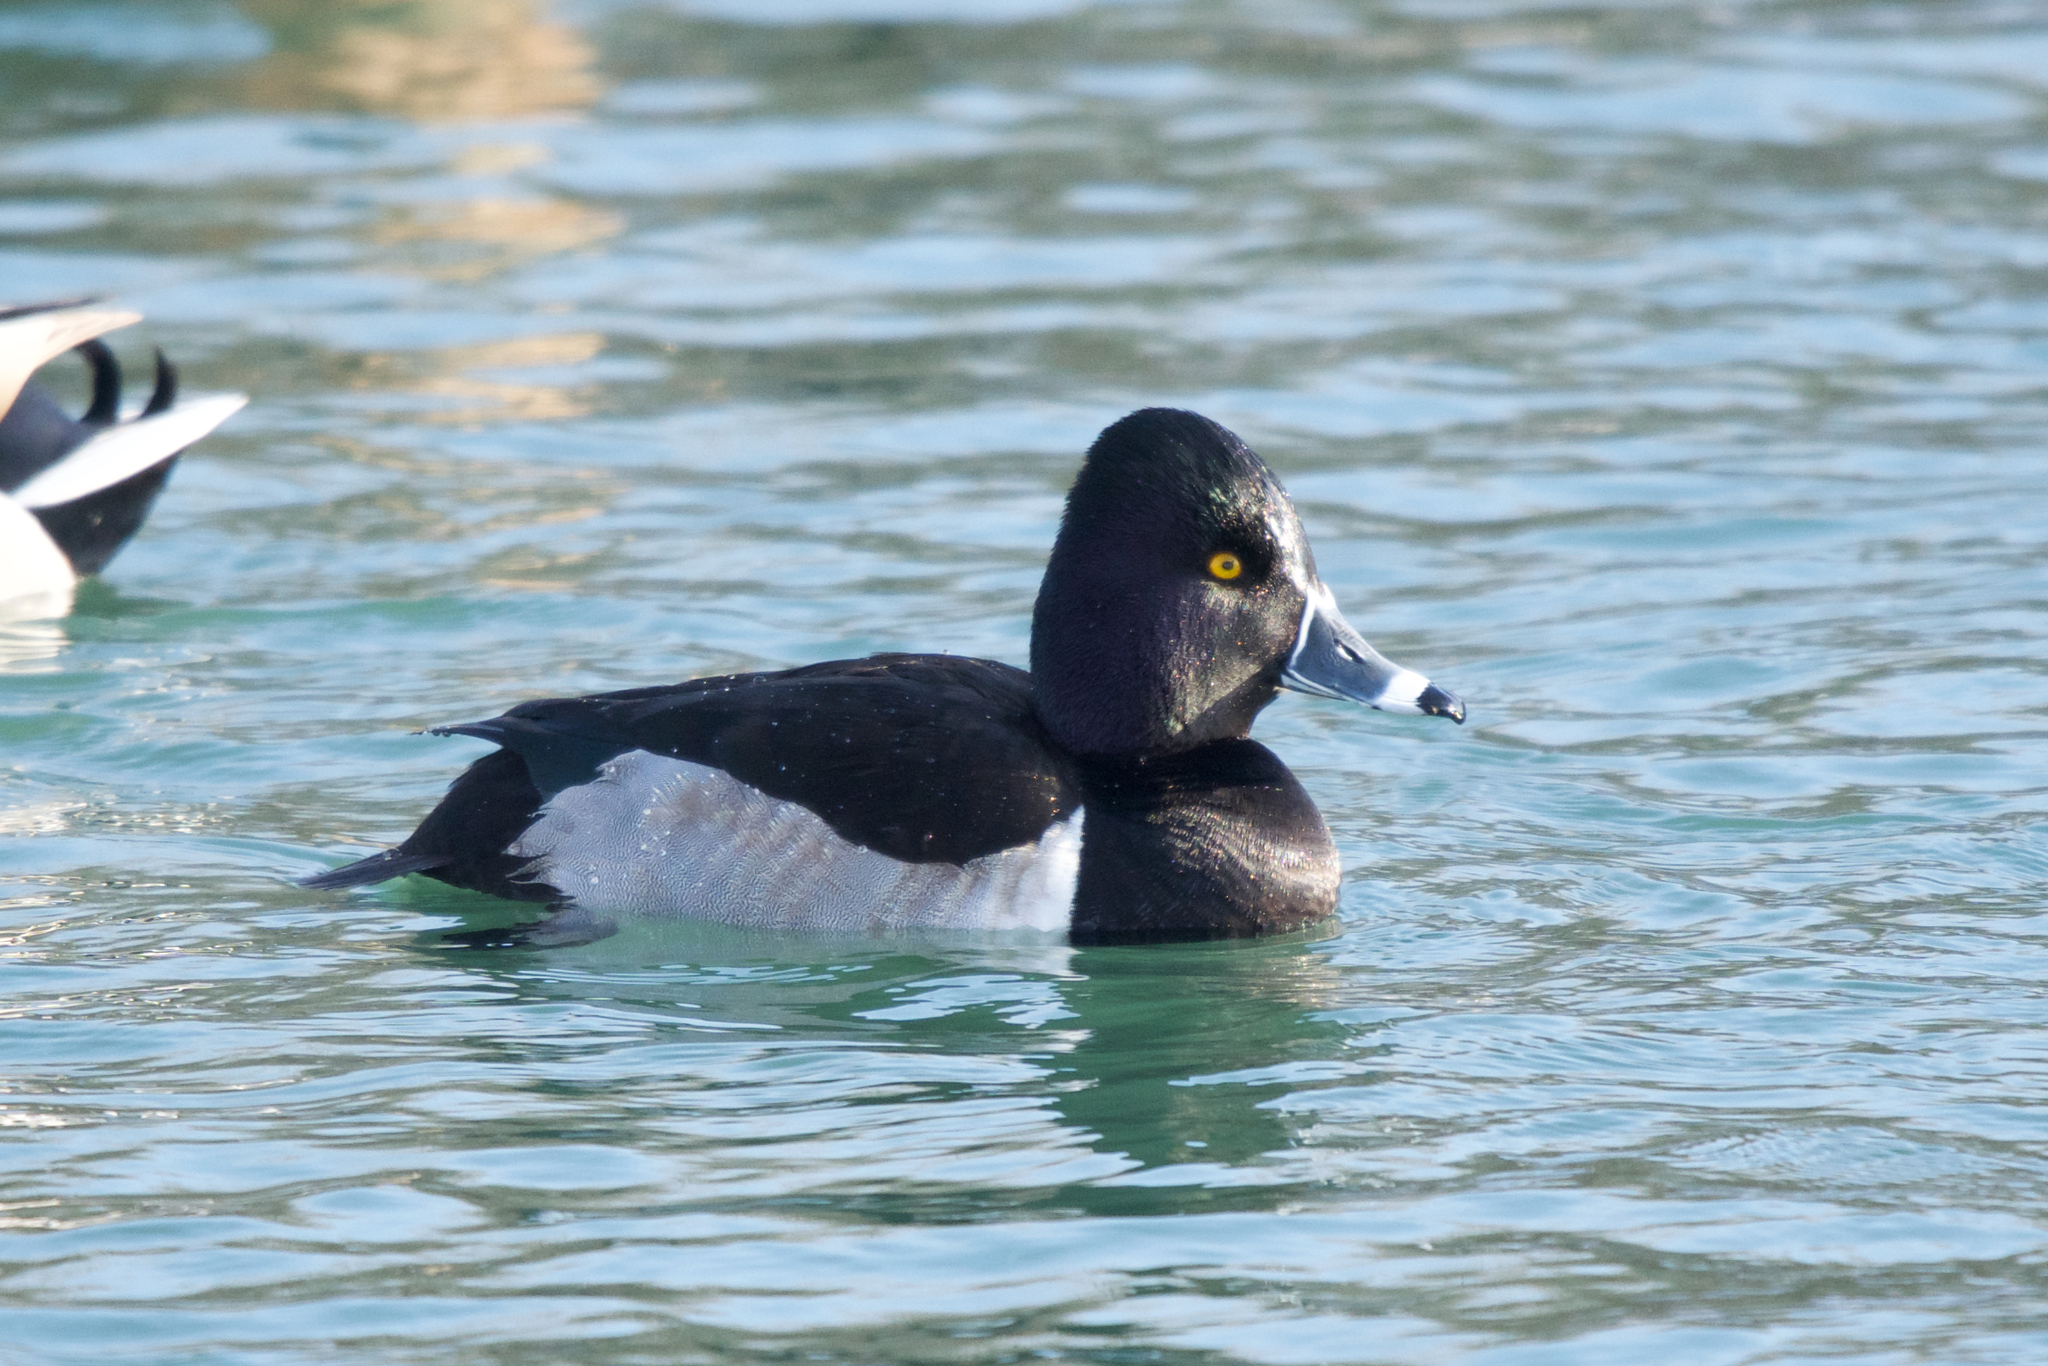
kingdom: Animalia
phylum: Chordata
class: Aves
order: Anseriformes
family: Anatidae
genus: Aythya
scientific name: Aythya collaris
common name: Ring-necked duck
